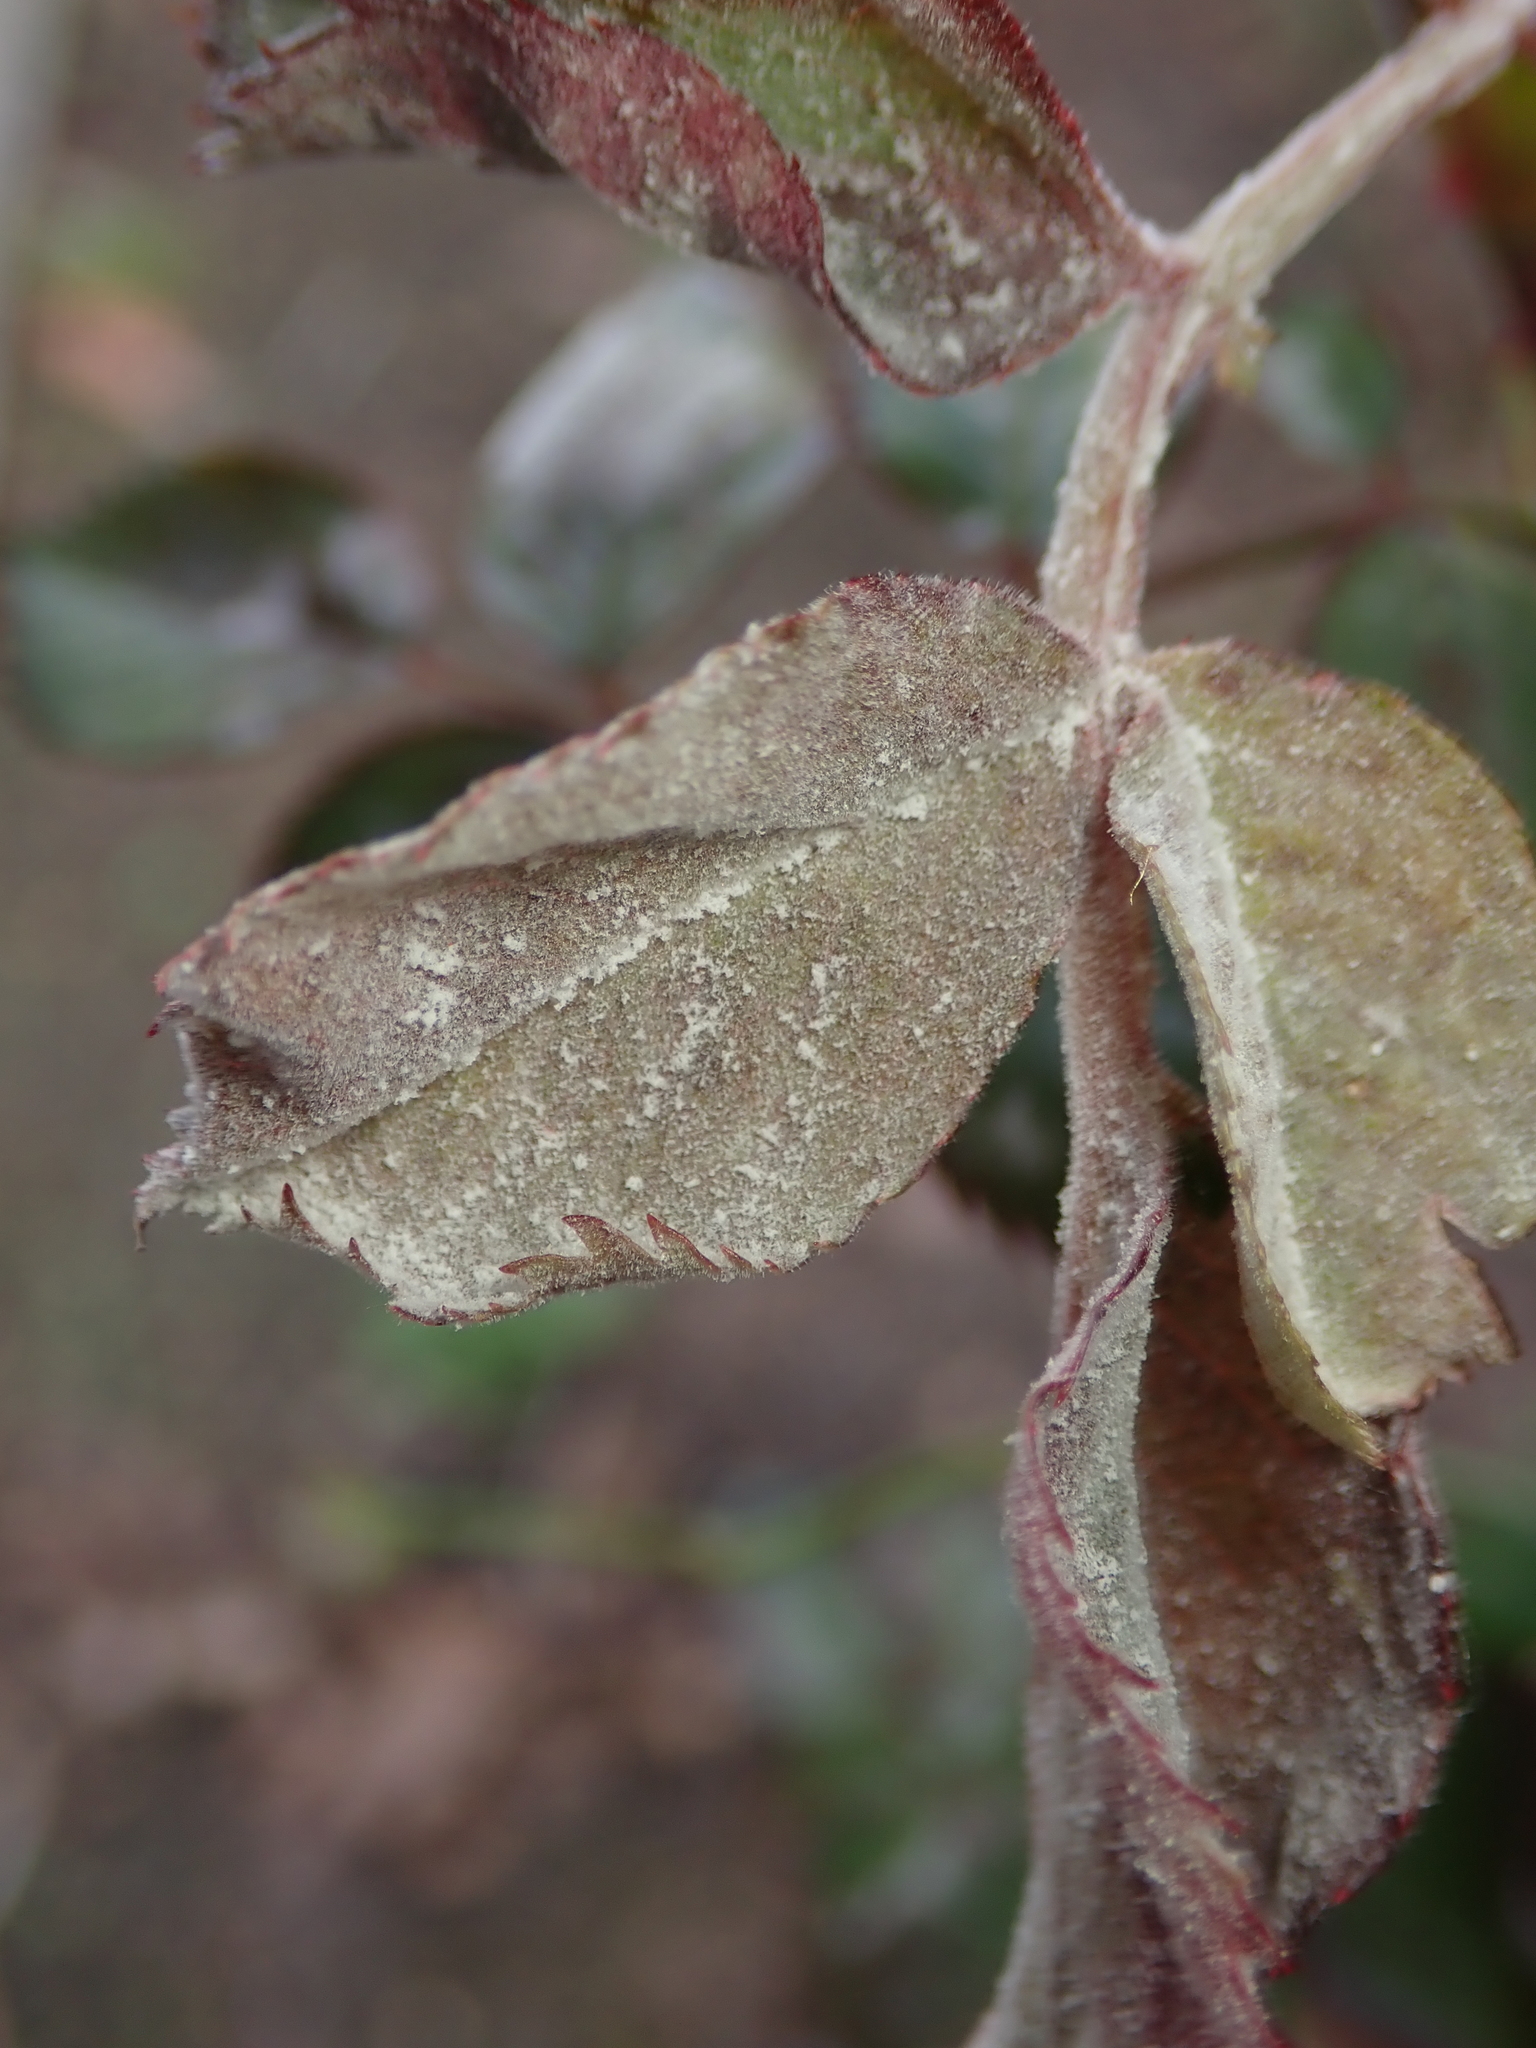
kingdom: Fungi
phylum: Ascomycota
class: Leotiomycetes
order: Helotiales
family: Erysiphaceae
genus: Podosphaera
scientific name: Podosphaera pannosa
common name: Rose mildew
